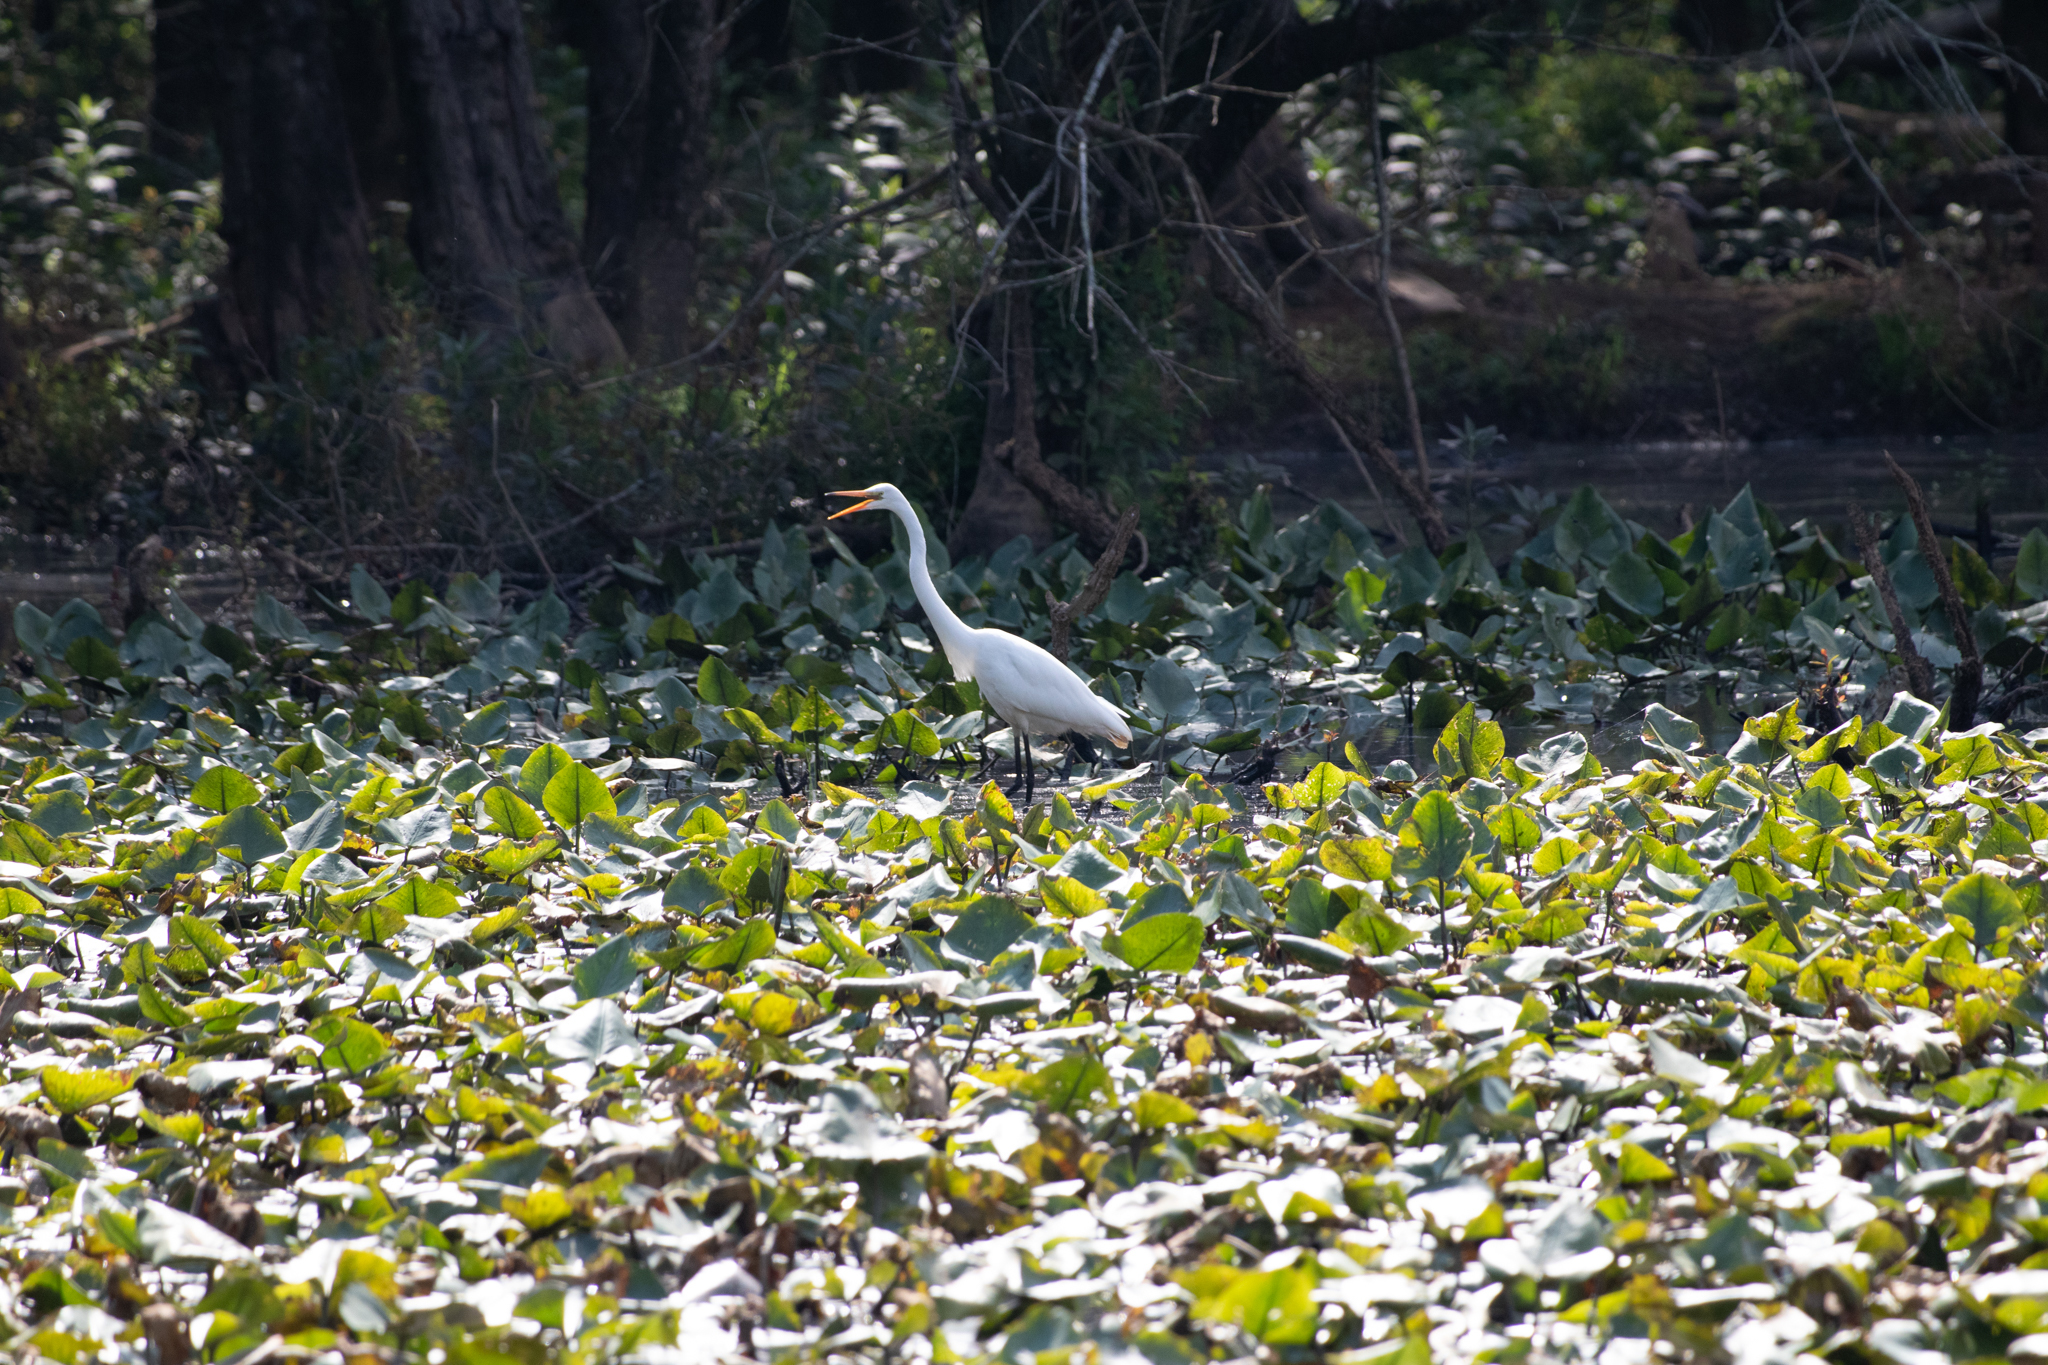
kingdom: Animalia
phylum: Chordata
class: Aves
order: Pelecaniformes
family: Ardeidae
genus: Ardea
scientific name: Ardea alba
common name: Great egret
